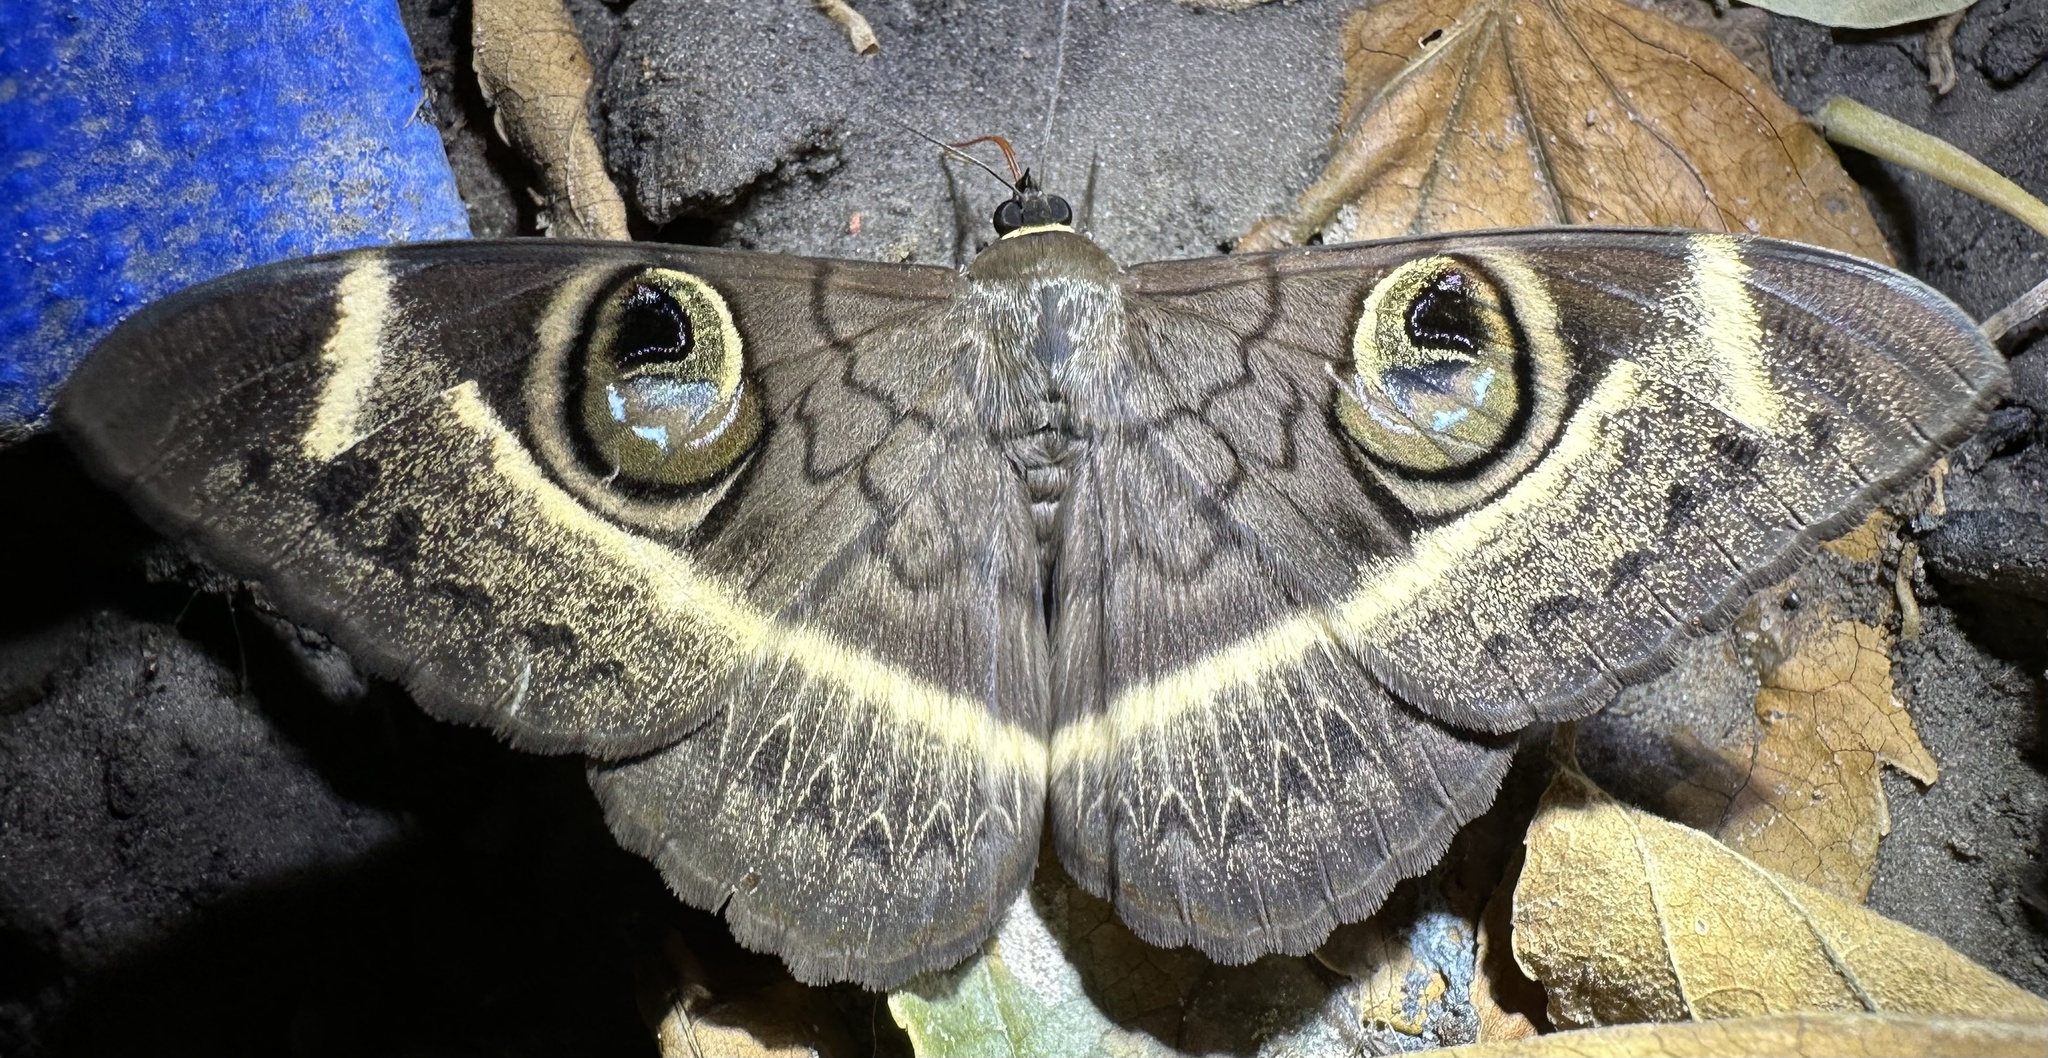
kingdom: Animalia
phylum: Arthropoda
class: Insecta
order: Lepidoptera
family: Erebidae
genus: Cyligramma
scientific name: Cyligramma latona
